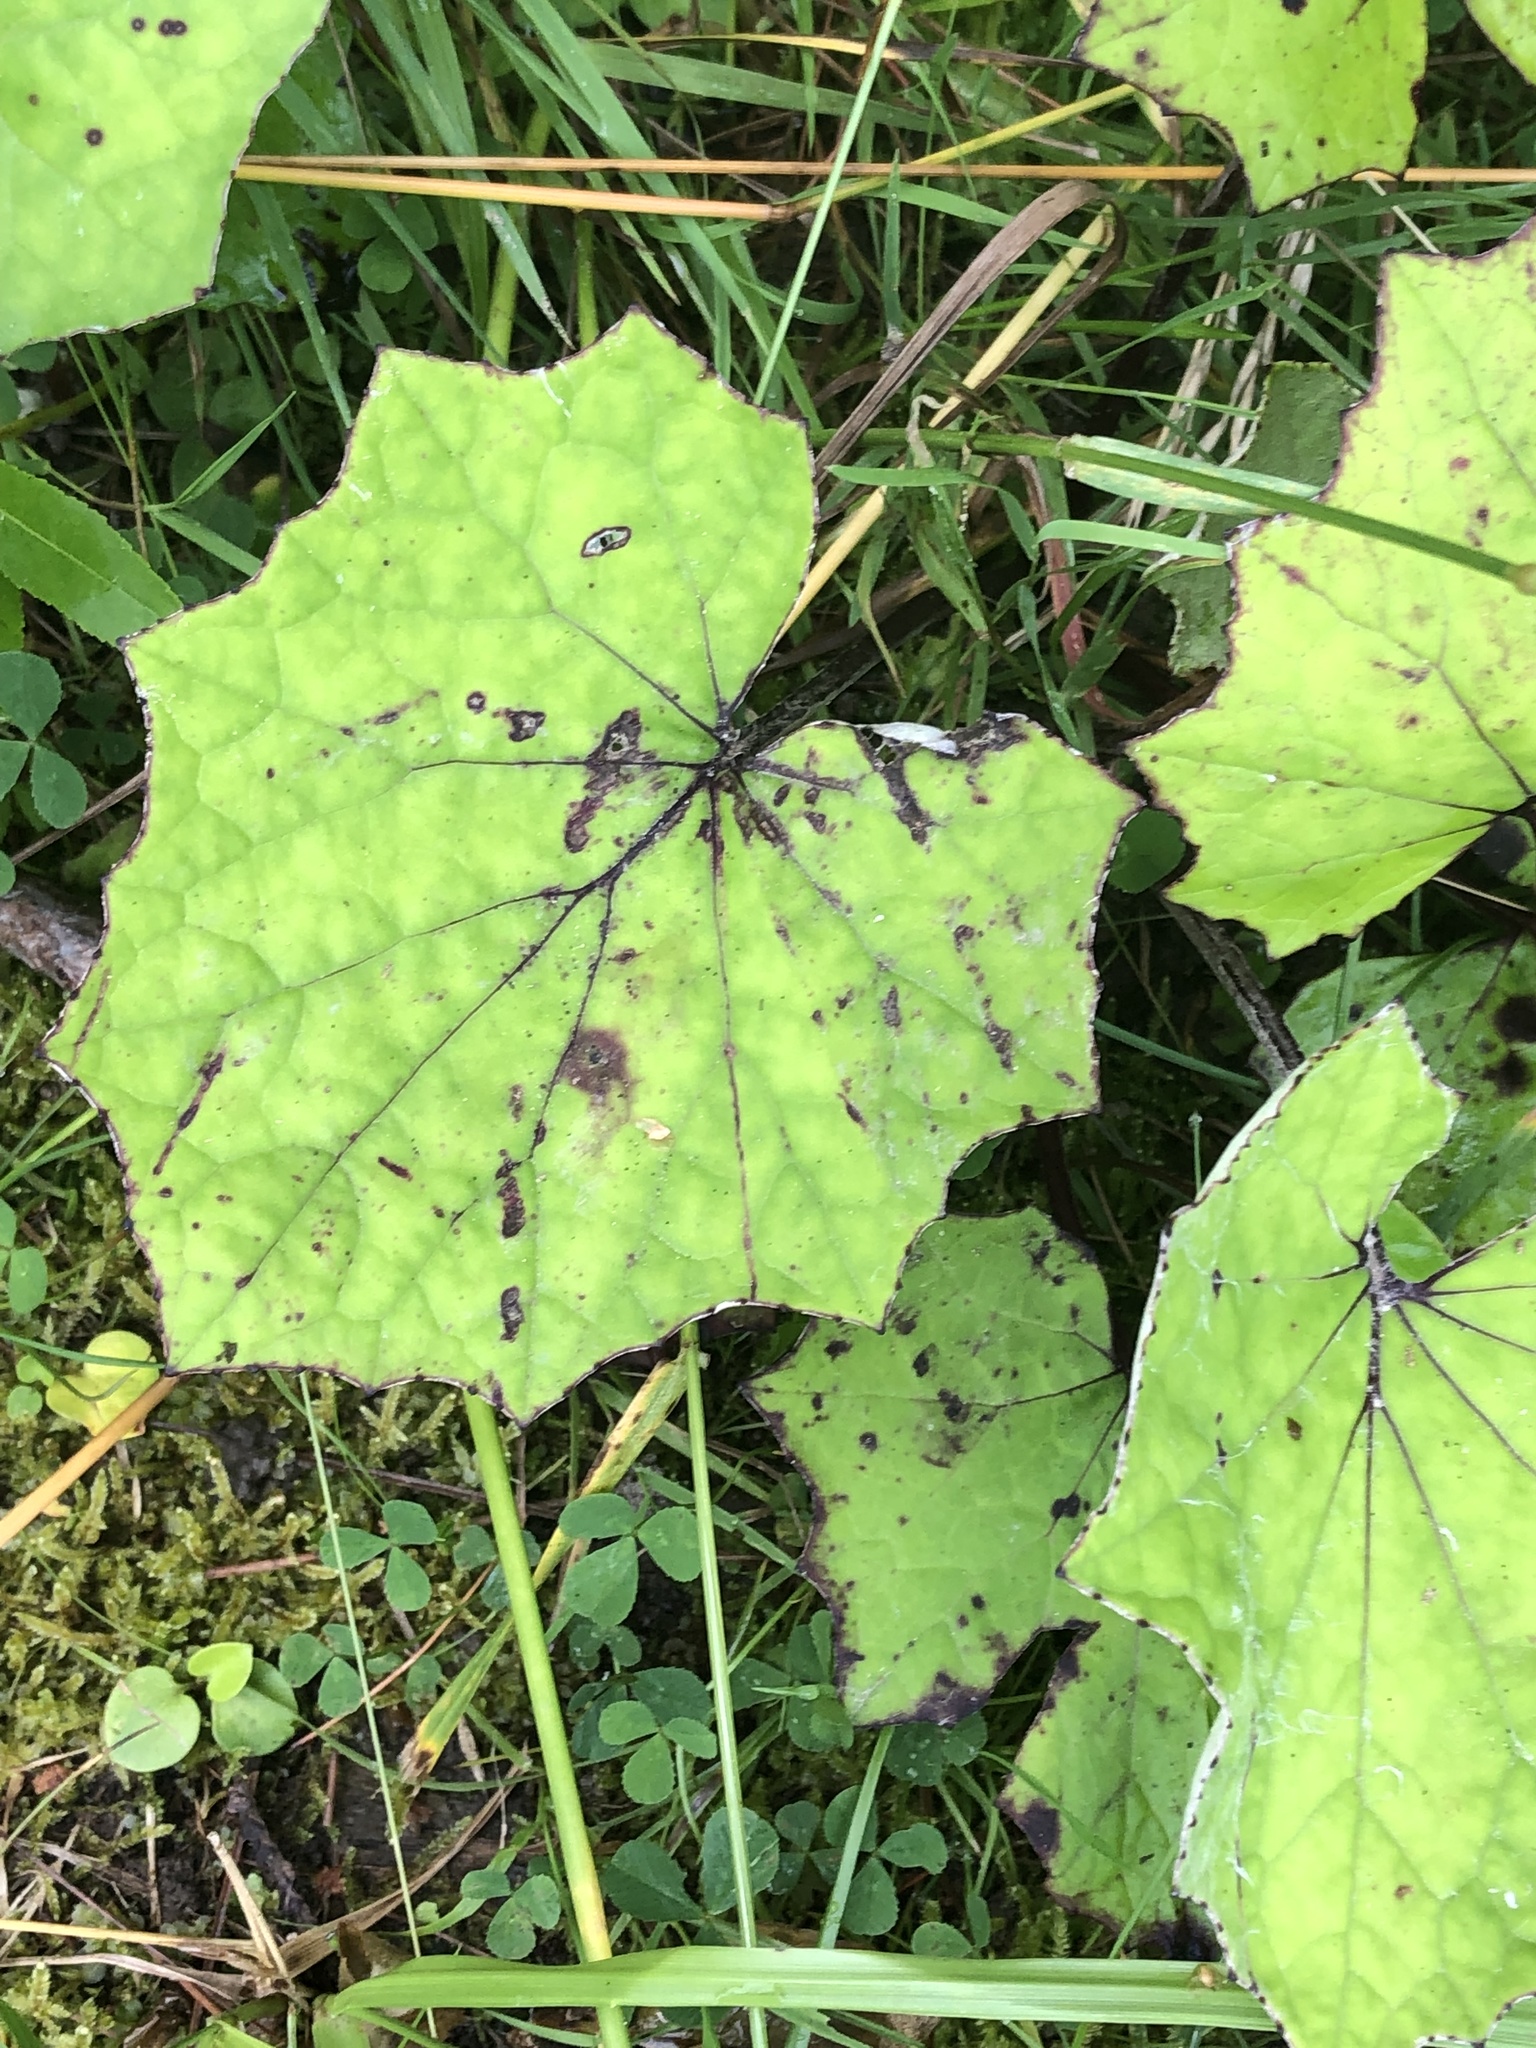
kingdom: Plantae
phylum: Tracheophyta
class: Magnoliopsida
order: Asterales
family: Asteraceae
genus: Tussilago
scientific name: Tussilago farfara
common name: Coltsfoot
